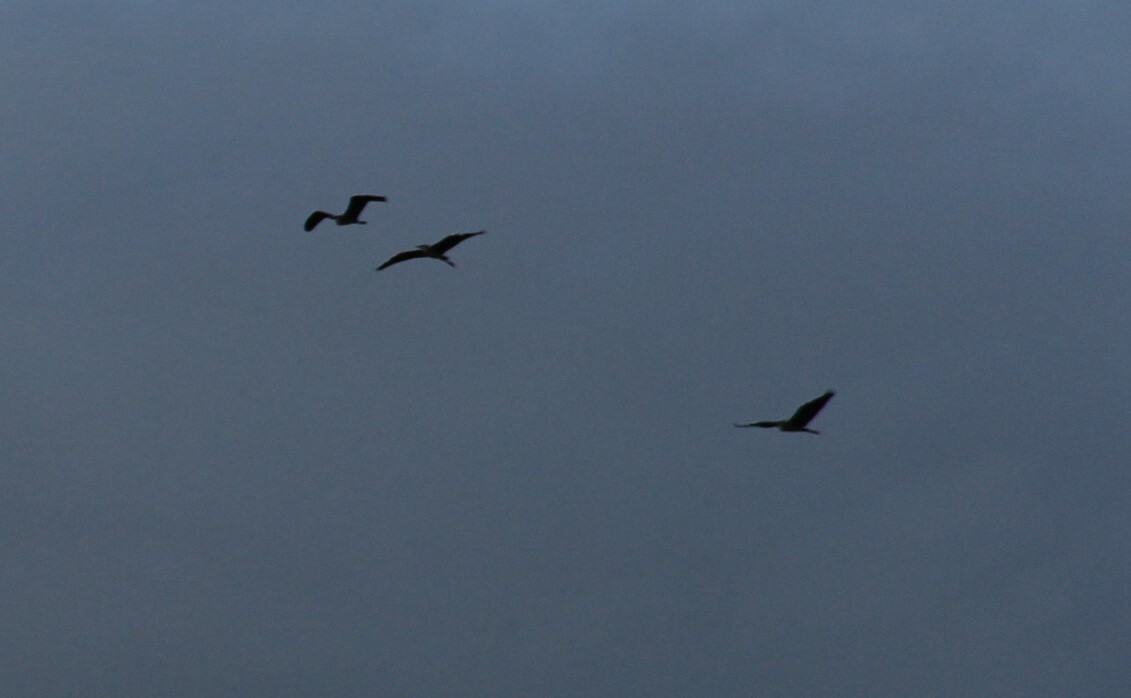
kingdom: Animalia
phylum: Chordata
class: Aves
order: Pelecaniformes
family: Ardeidae
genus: Ardea
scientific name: Ardea cinerea
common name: Grey heron
